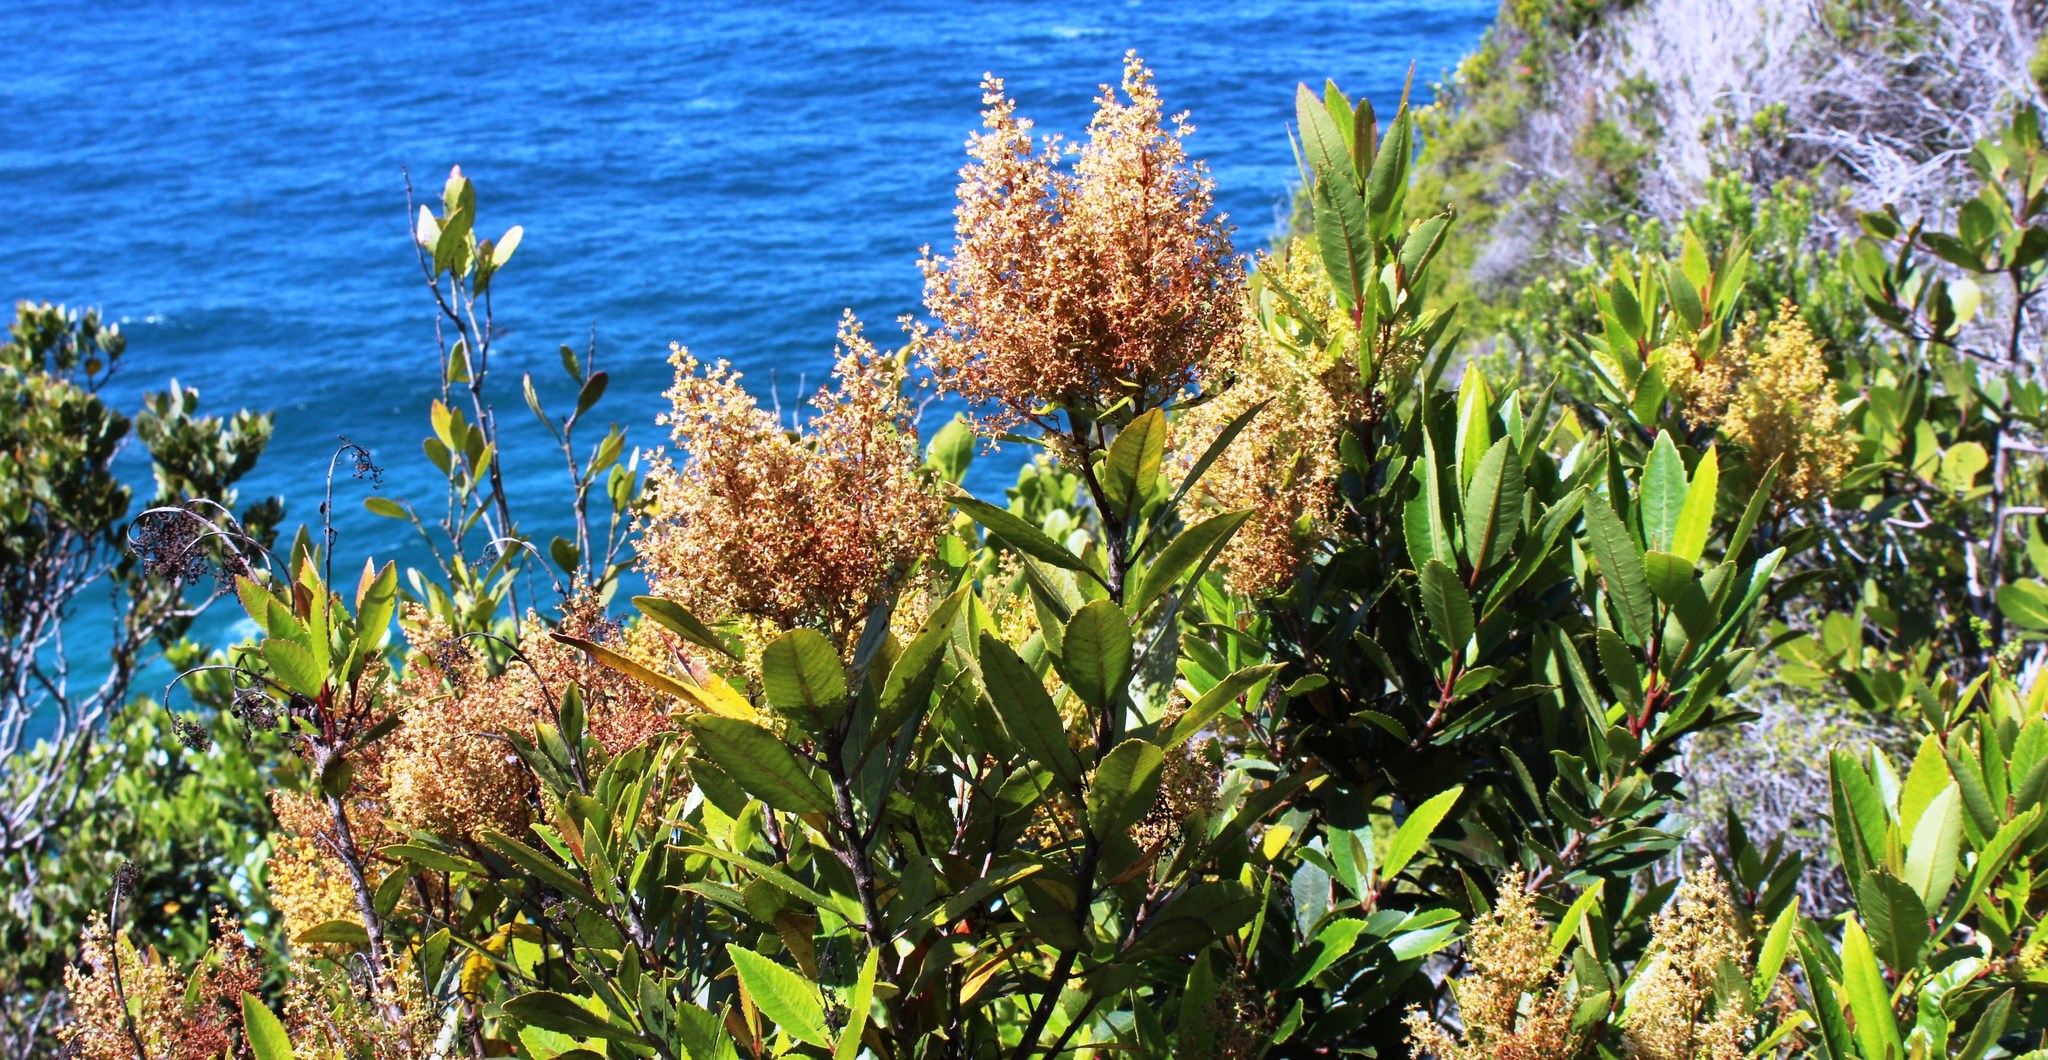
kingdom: Plantae
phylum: Tracheophyta
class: Magnoliopsida
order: Sapindales
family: Anacardiaceae
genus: Laurophyllus
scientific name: Laurophyllus capensis
